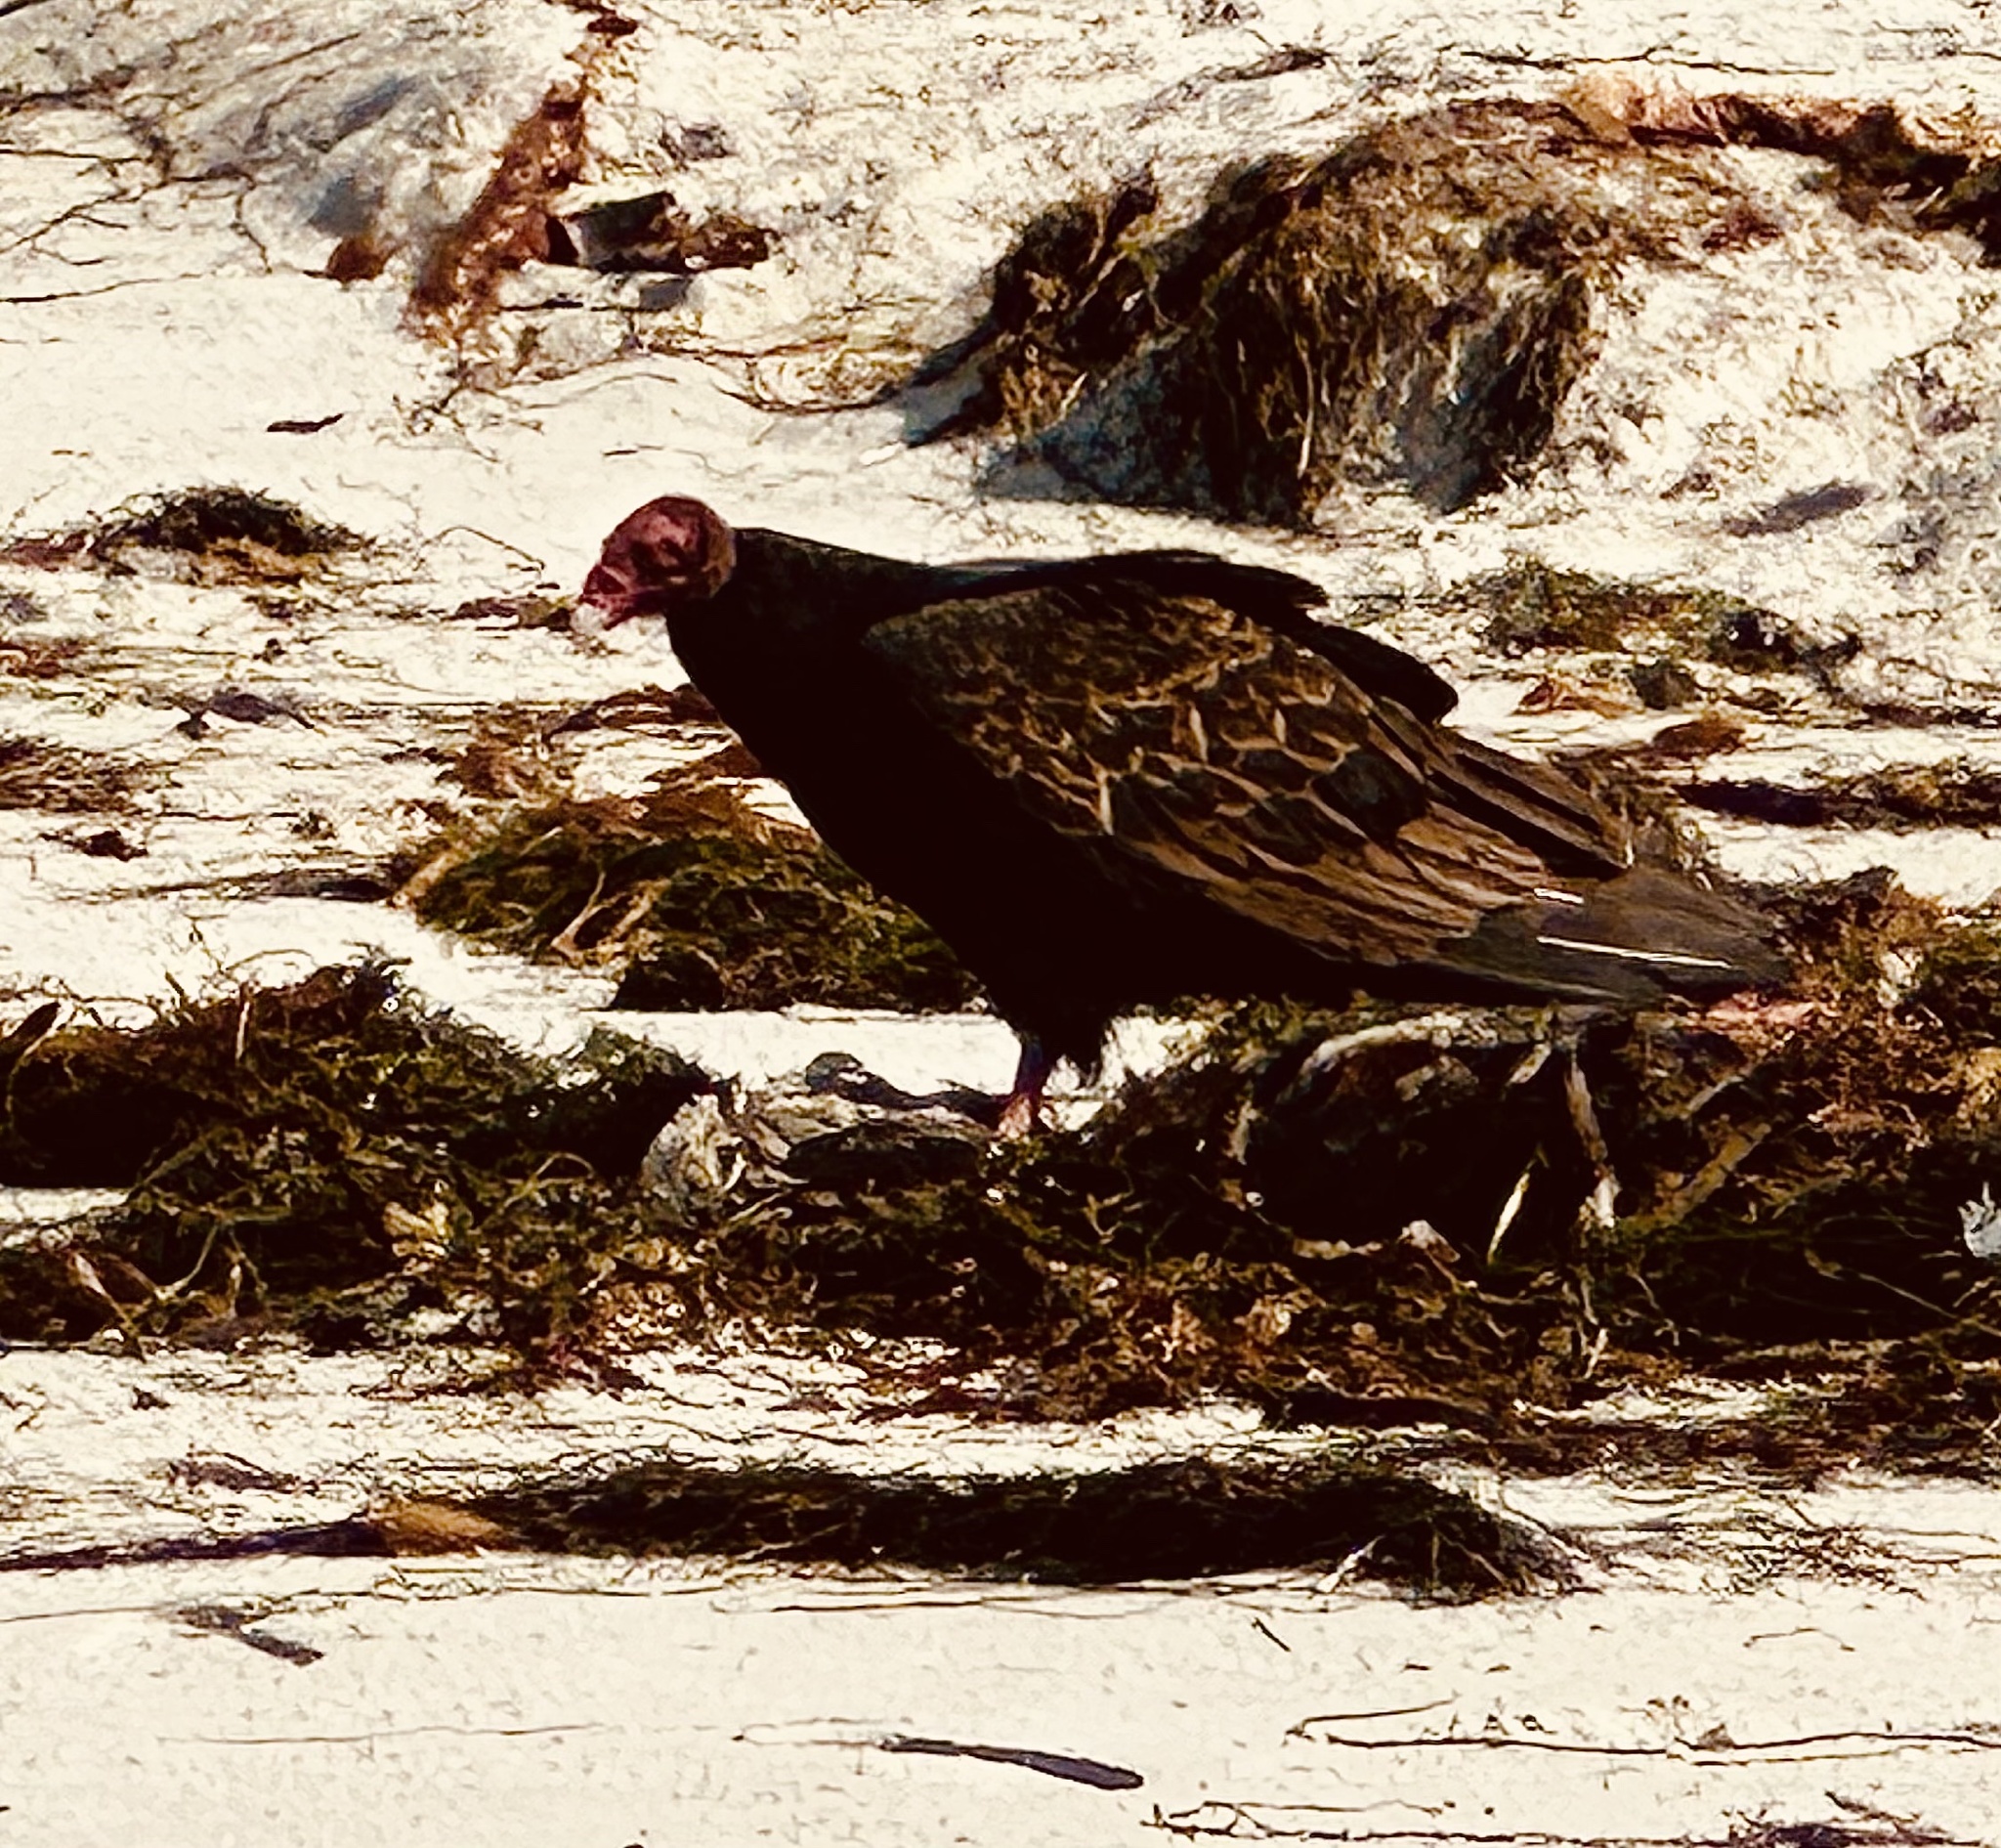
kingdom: Animalia
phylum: Chordata
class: Aves
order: Accipitriformes
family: Cathartidae
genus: Cathartes
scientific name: Cathartes aura
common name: Turkey vulture
